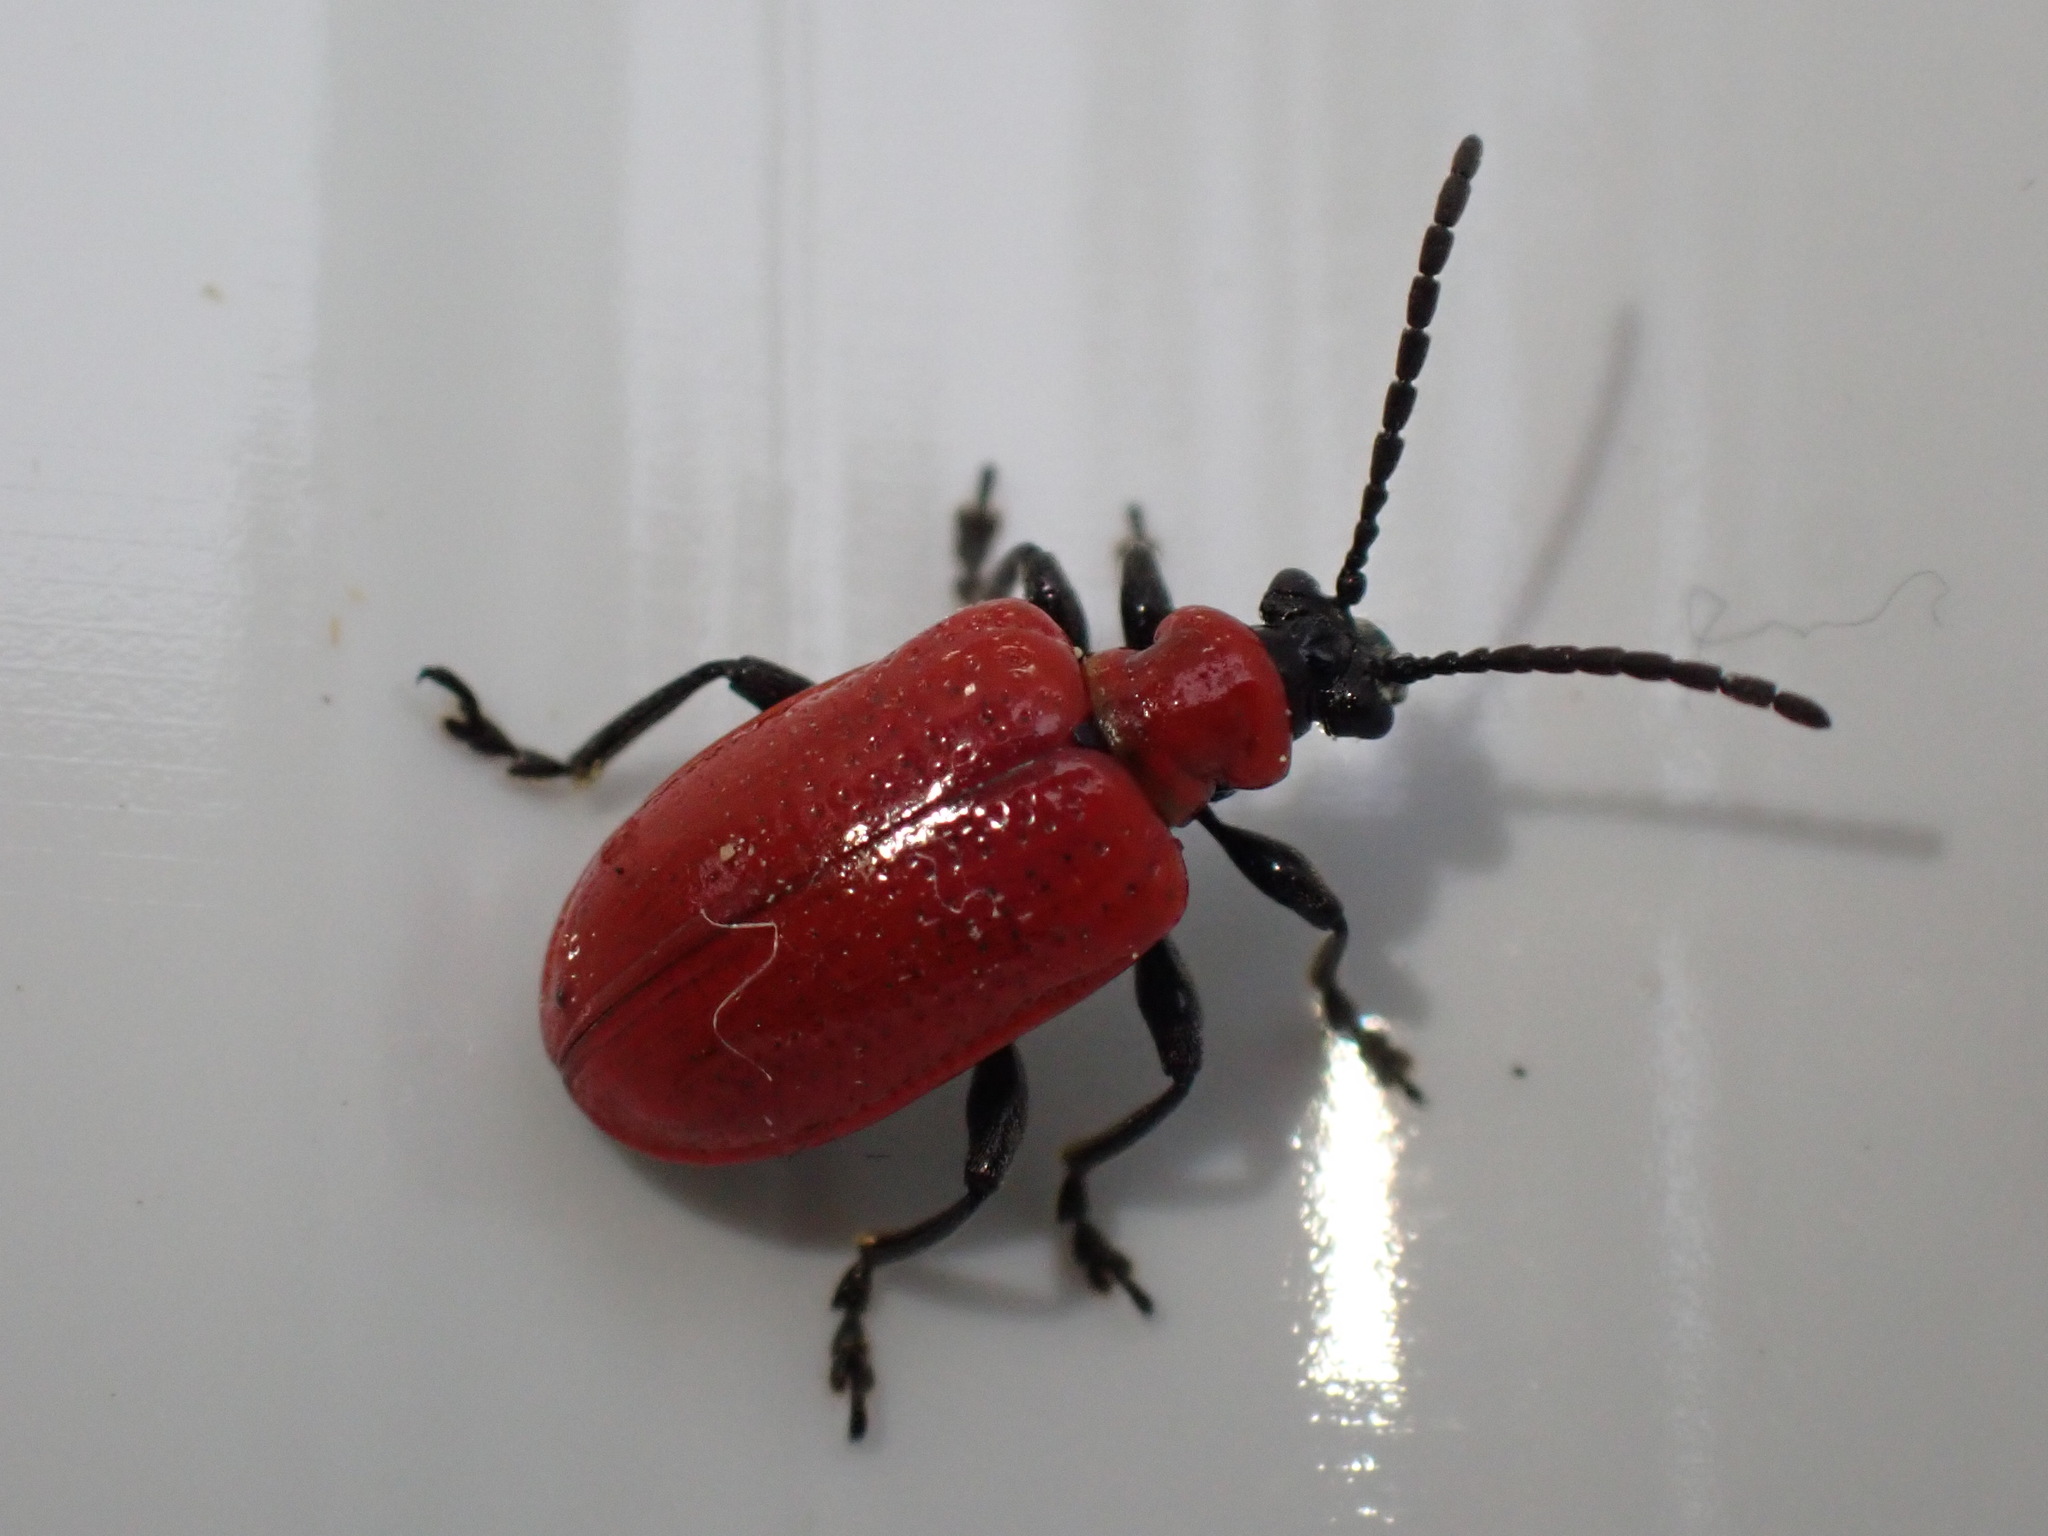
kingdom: Animalia
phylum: Arthropoda
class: Insecta
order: Coleoptera
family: Chrysomelidae
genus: Lilioceris
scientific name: Lilioceris lilii
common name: Lily beetle
